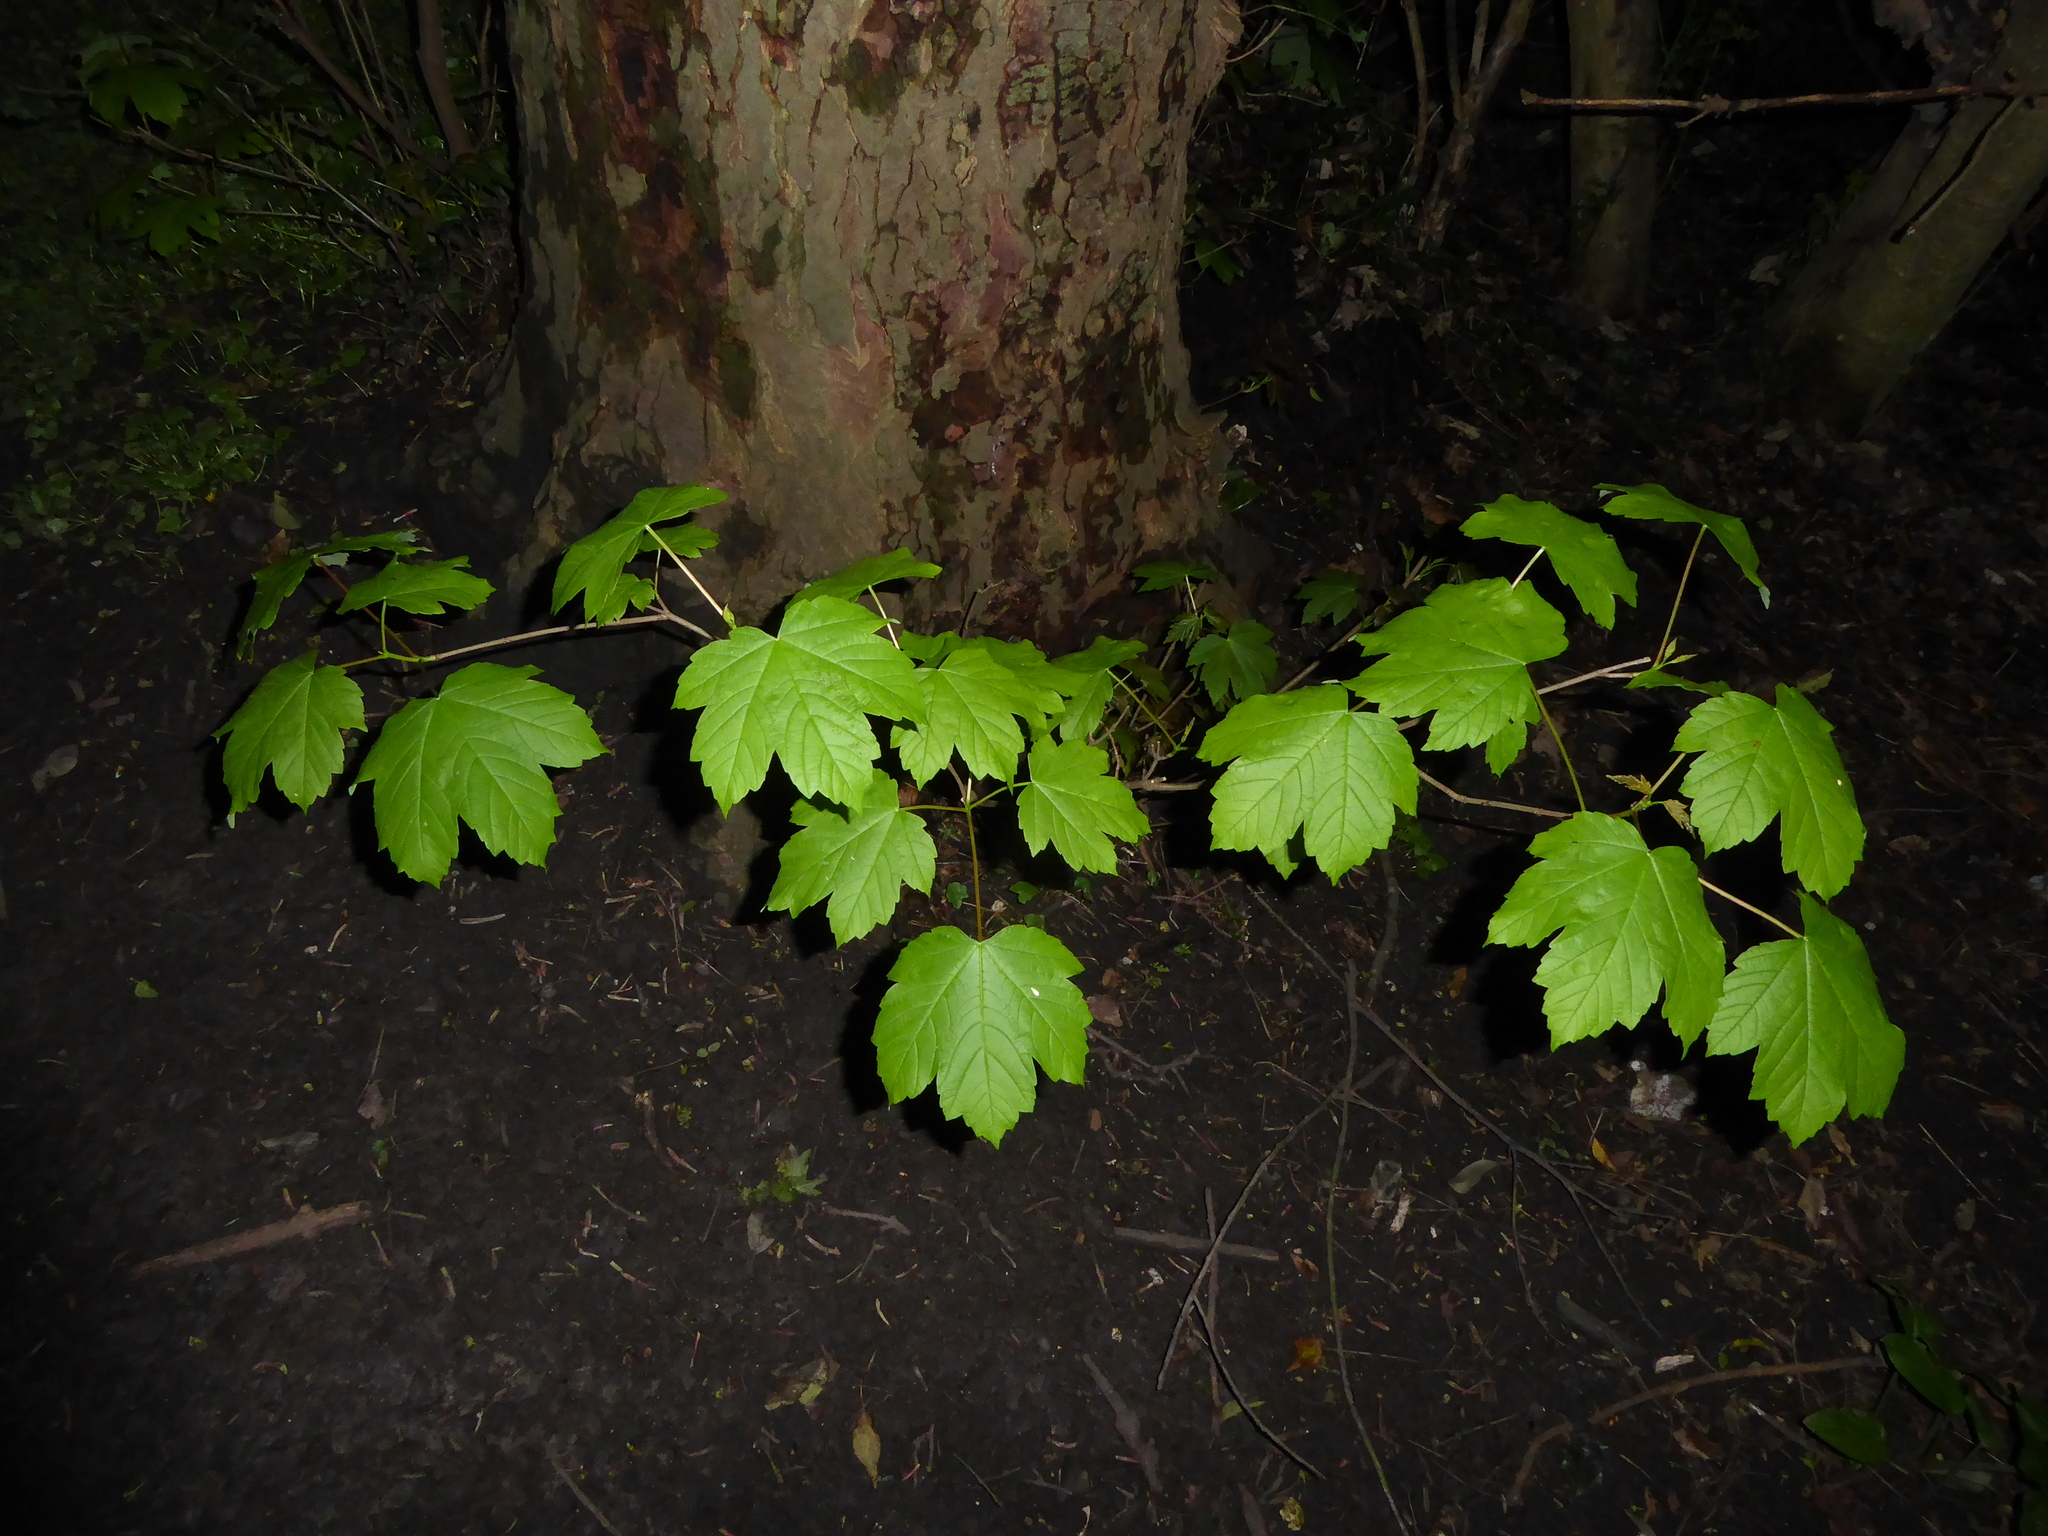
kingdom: Plantae
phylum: Tracheophyta
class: Magnoliopsida
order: Sapindales
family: Sapindaceae
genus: Acer
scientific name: Acer pseudoplatanus
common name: Sycamore
